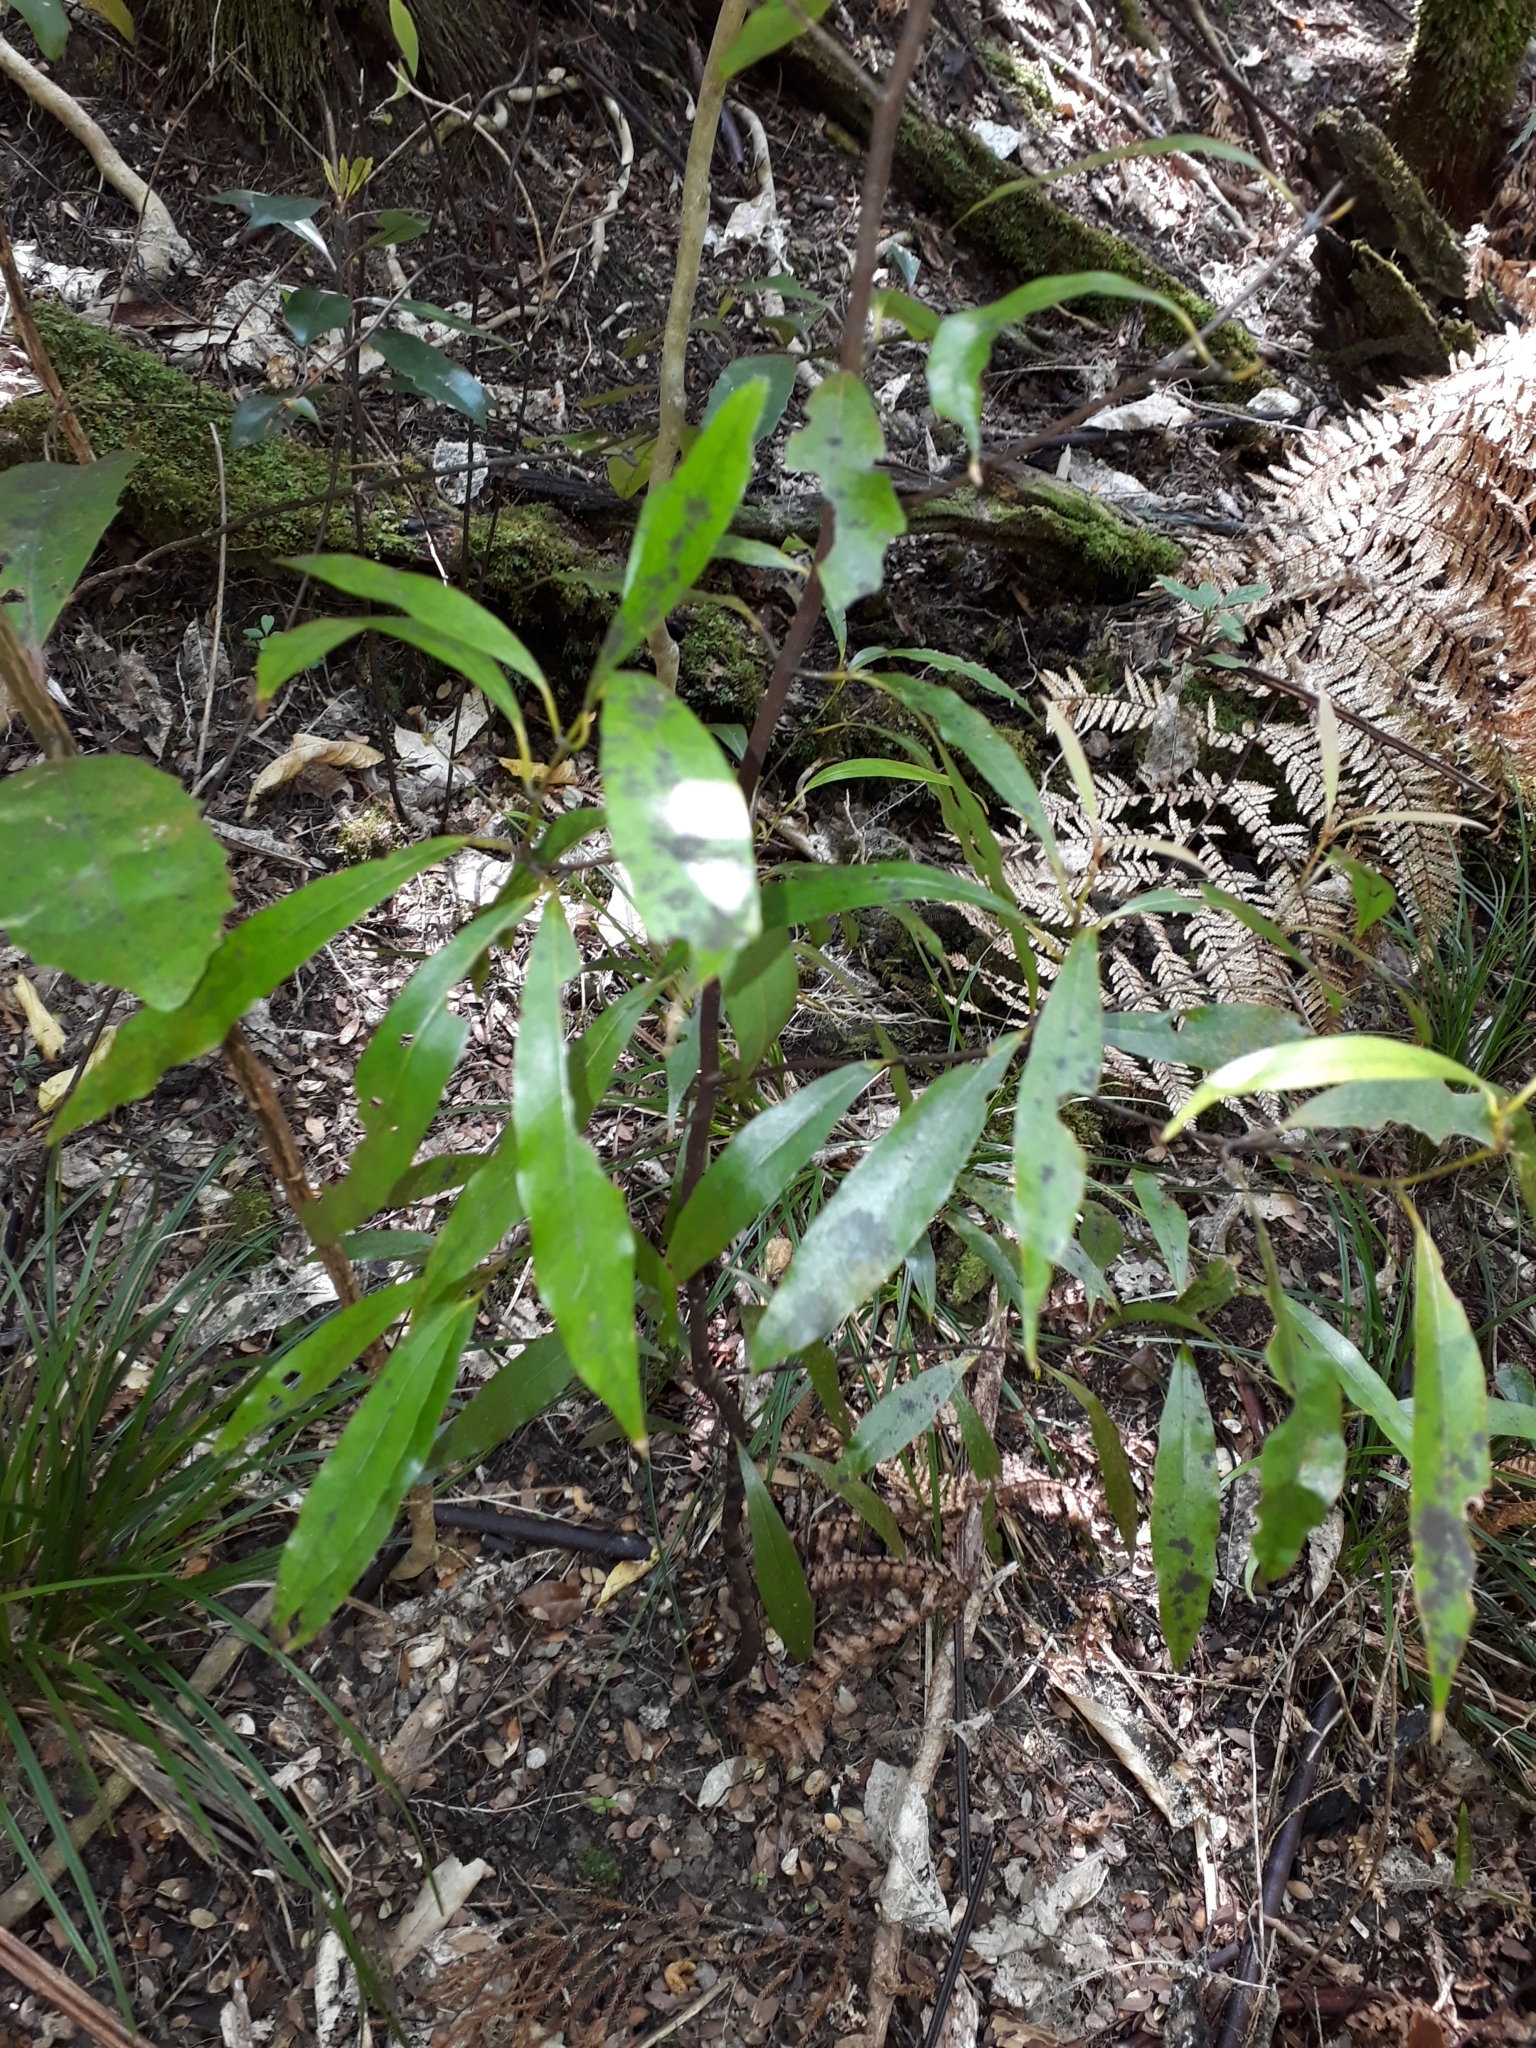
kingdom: Plantae
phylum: Tracheophyta
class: Magnoliopsida
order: Laurales
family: Lauraceae
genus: Beilschmiedia
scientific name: Beilschmiedia tawa
